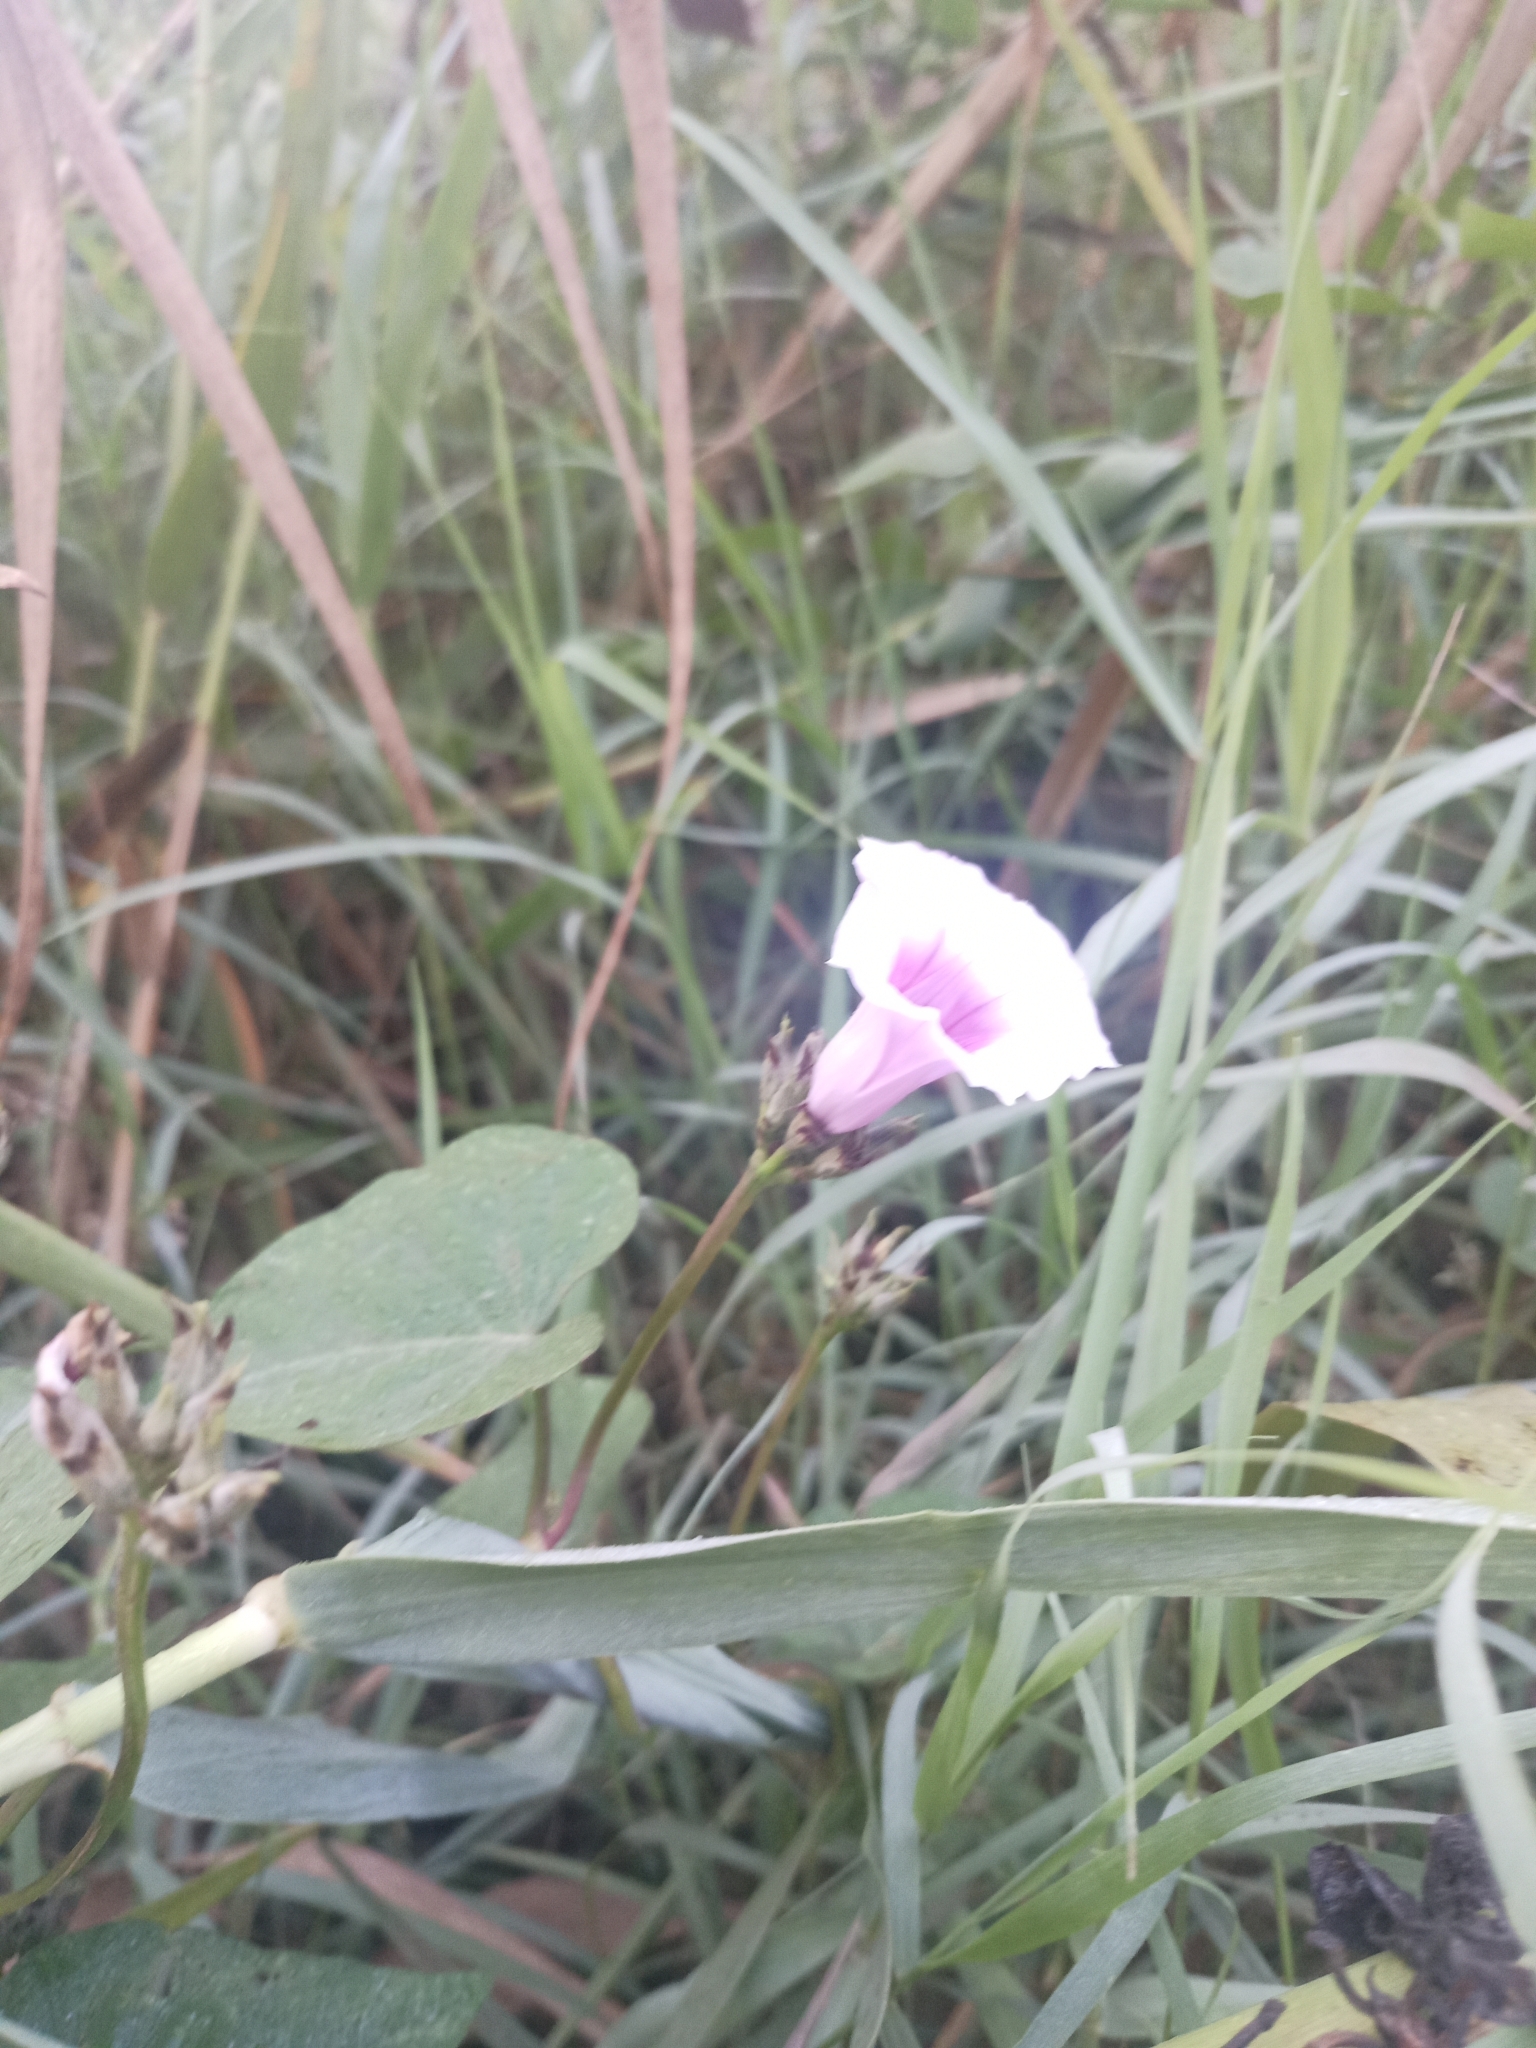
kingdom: Plantae
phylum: Tracheophyta
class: Magnoliopsida
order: Solanales
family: Convolvulaceae
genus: Ipomoea
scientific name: Ipomoea batatas
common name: Sweet-potato
